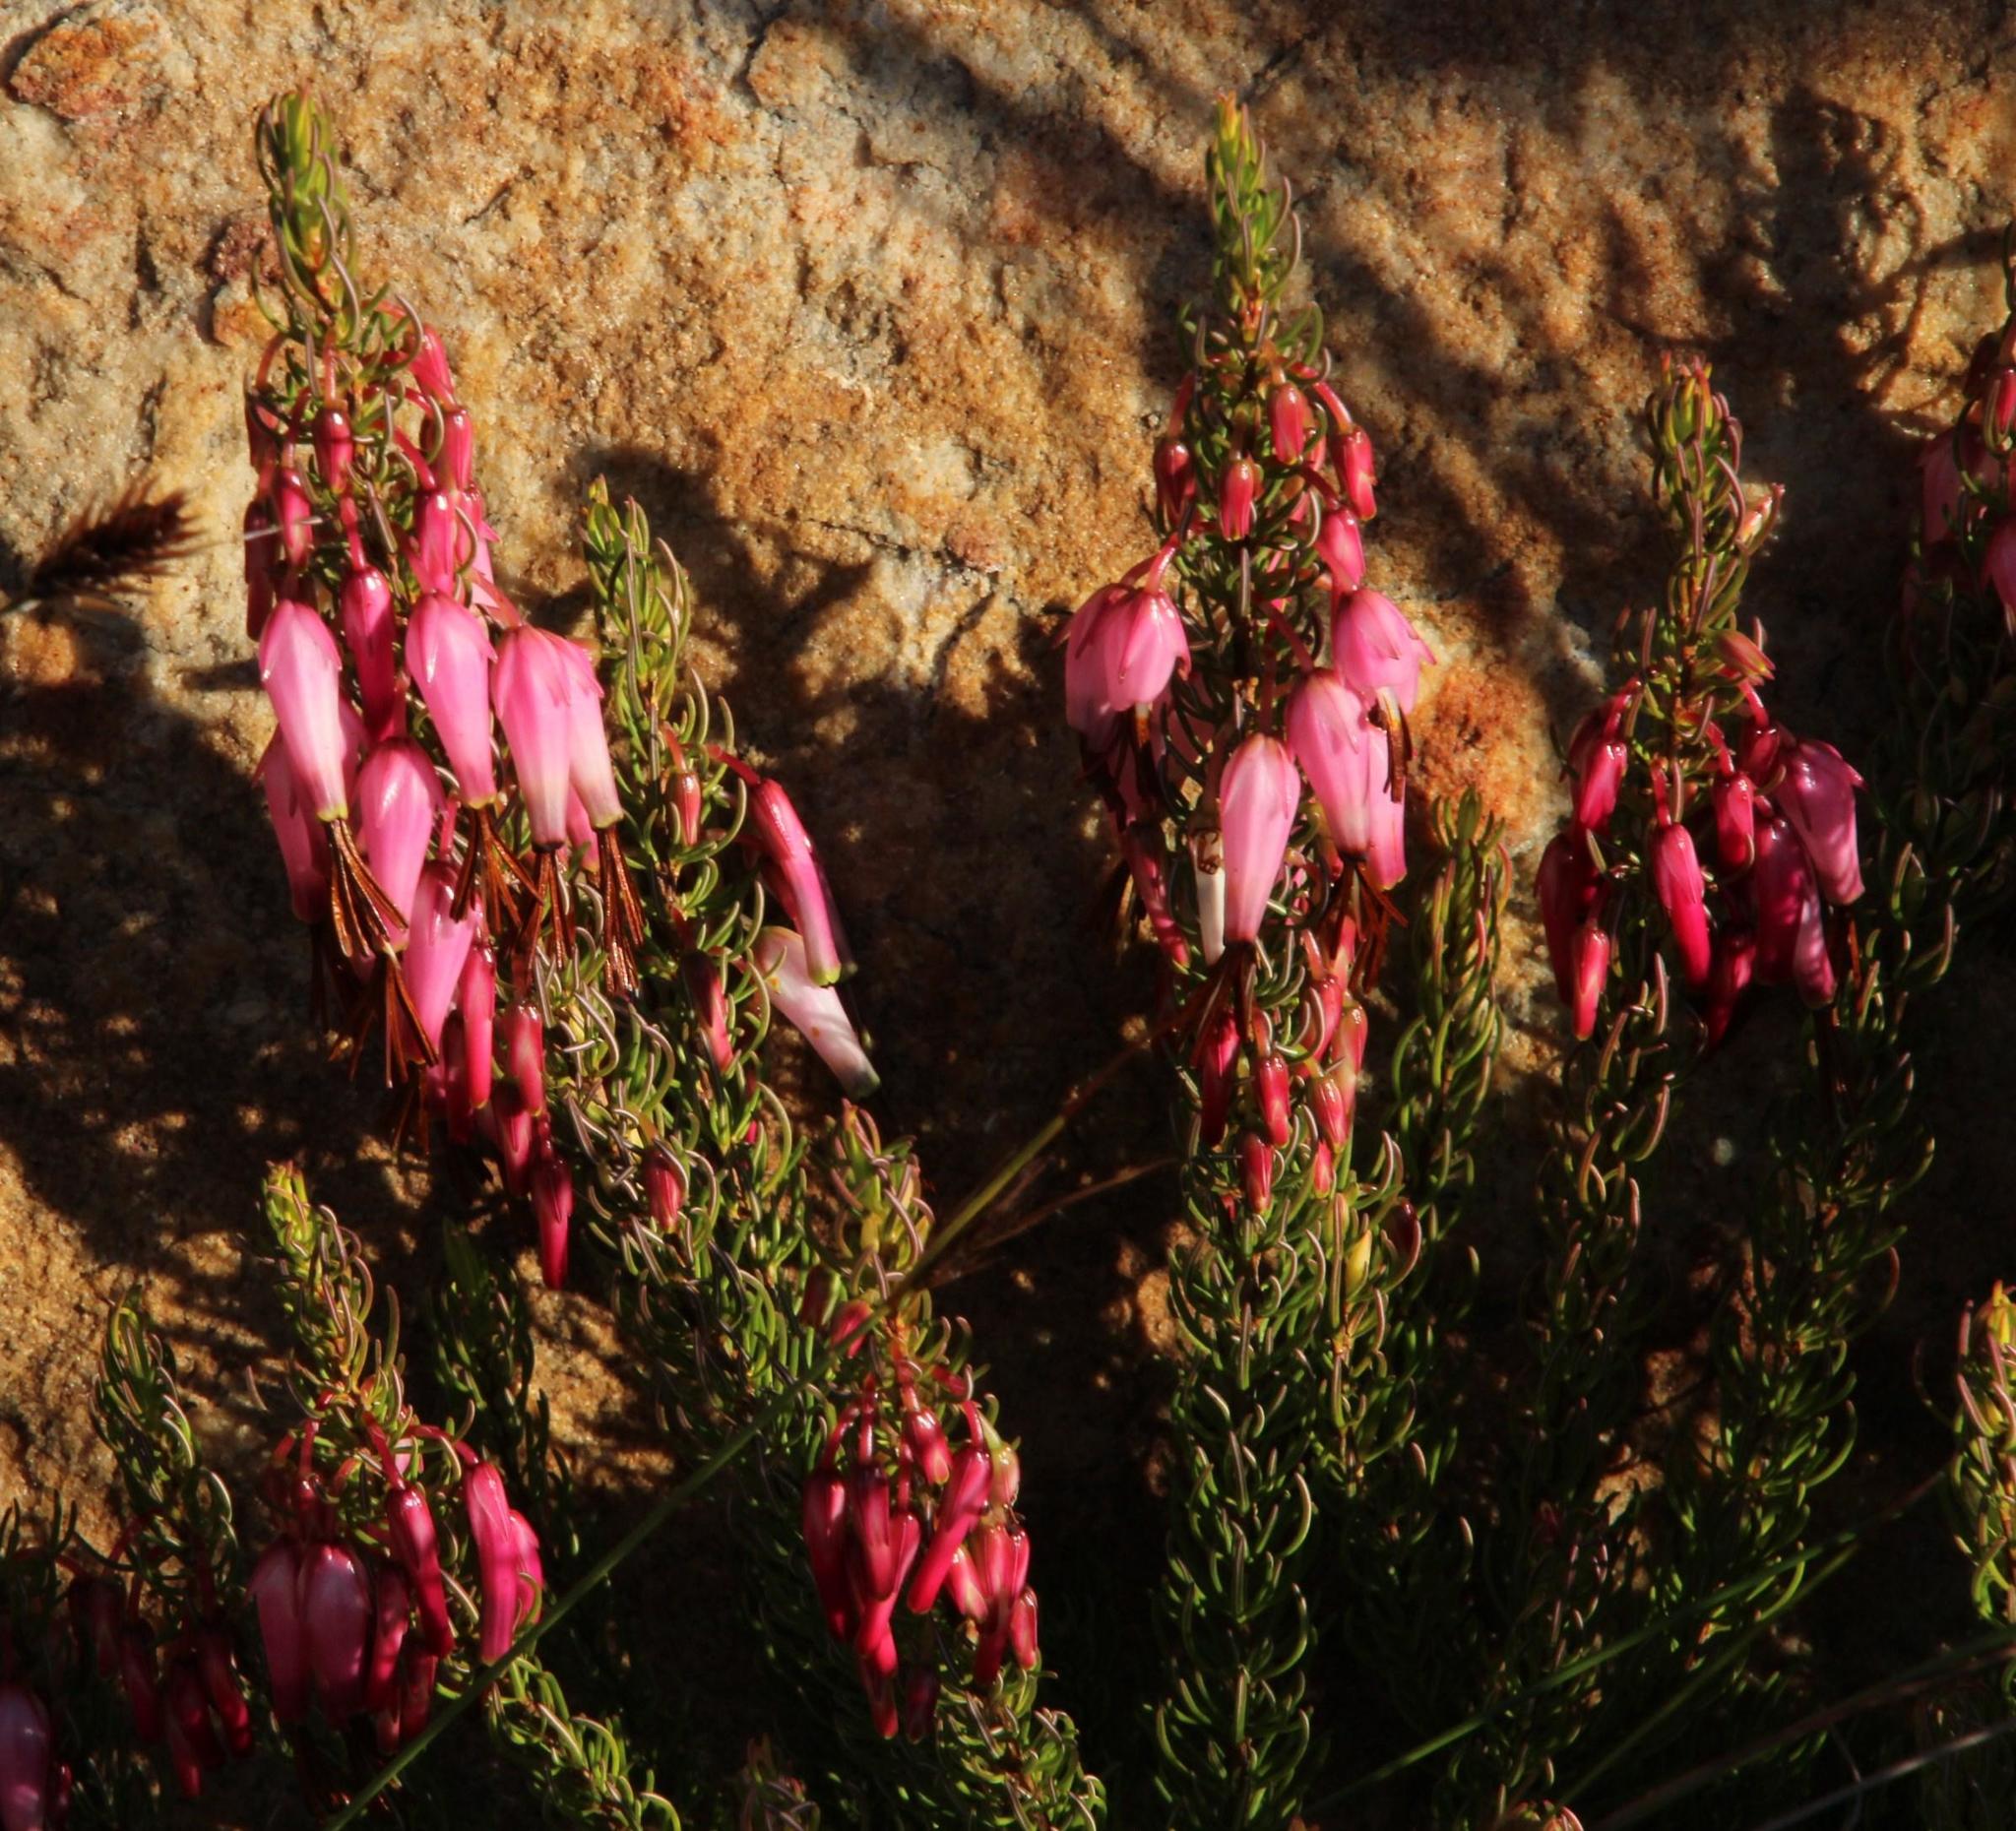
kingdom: Plantae
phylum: Tracheophyta
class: Magnoliopsida
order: Ericales
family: Ericaceae
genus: Erica
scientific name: Erica plukenetii
